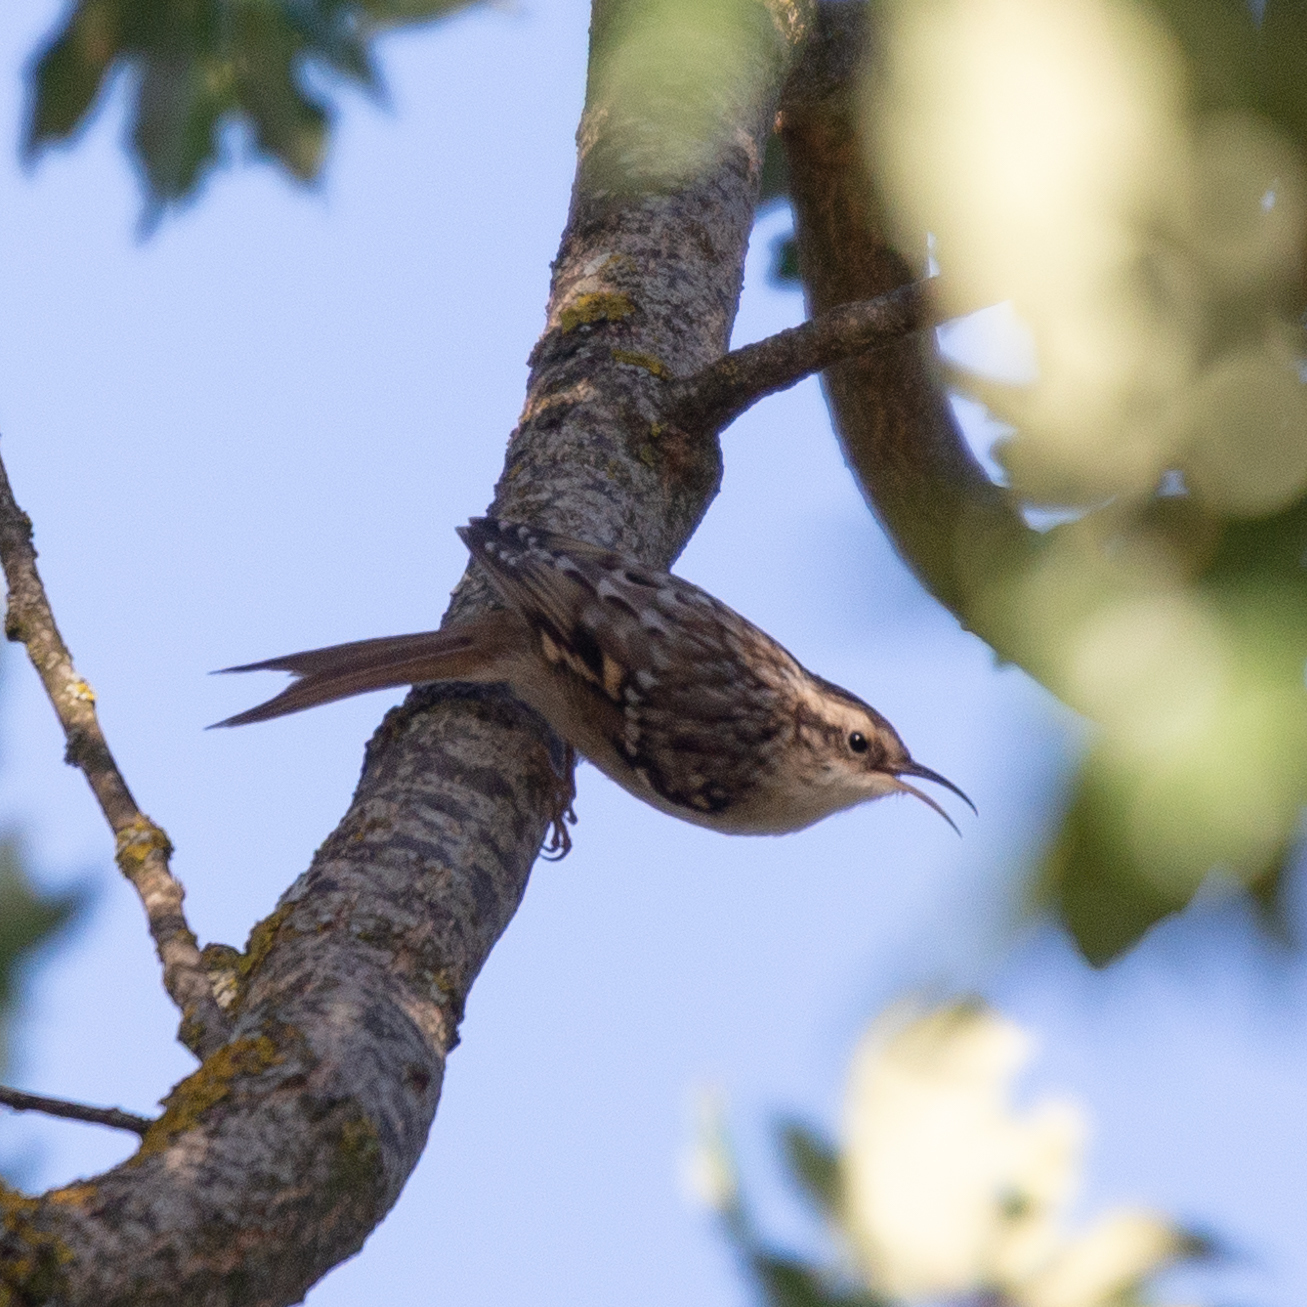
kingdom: Animalia
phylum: Chordata
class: Aves
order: Passeriformes
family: Certhiidae
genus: Certhia
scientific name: Certhia brachydactyla
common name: Short-toed treecreeper
